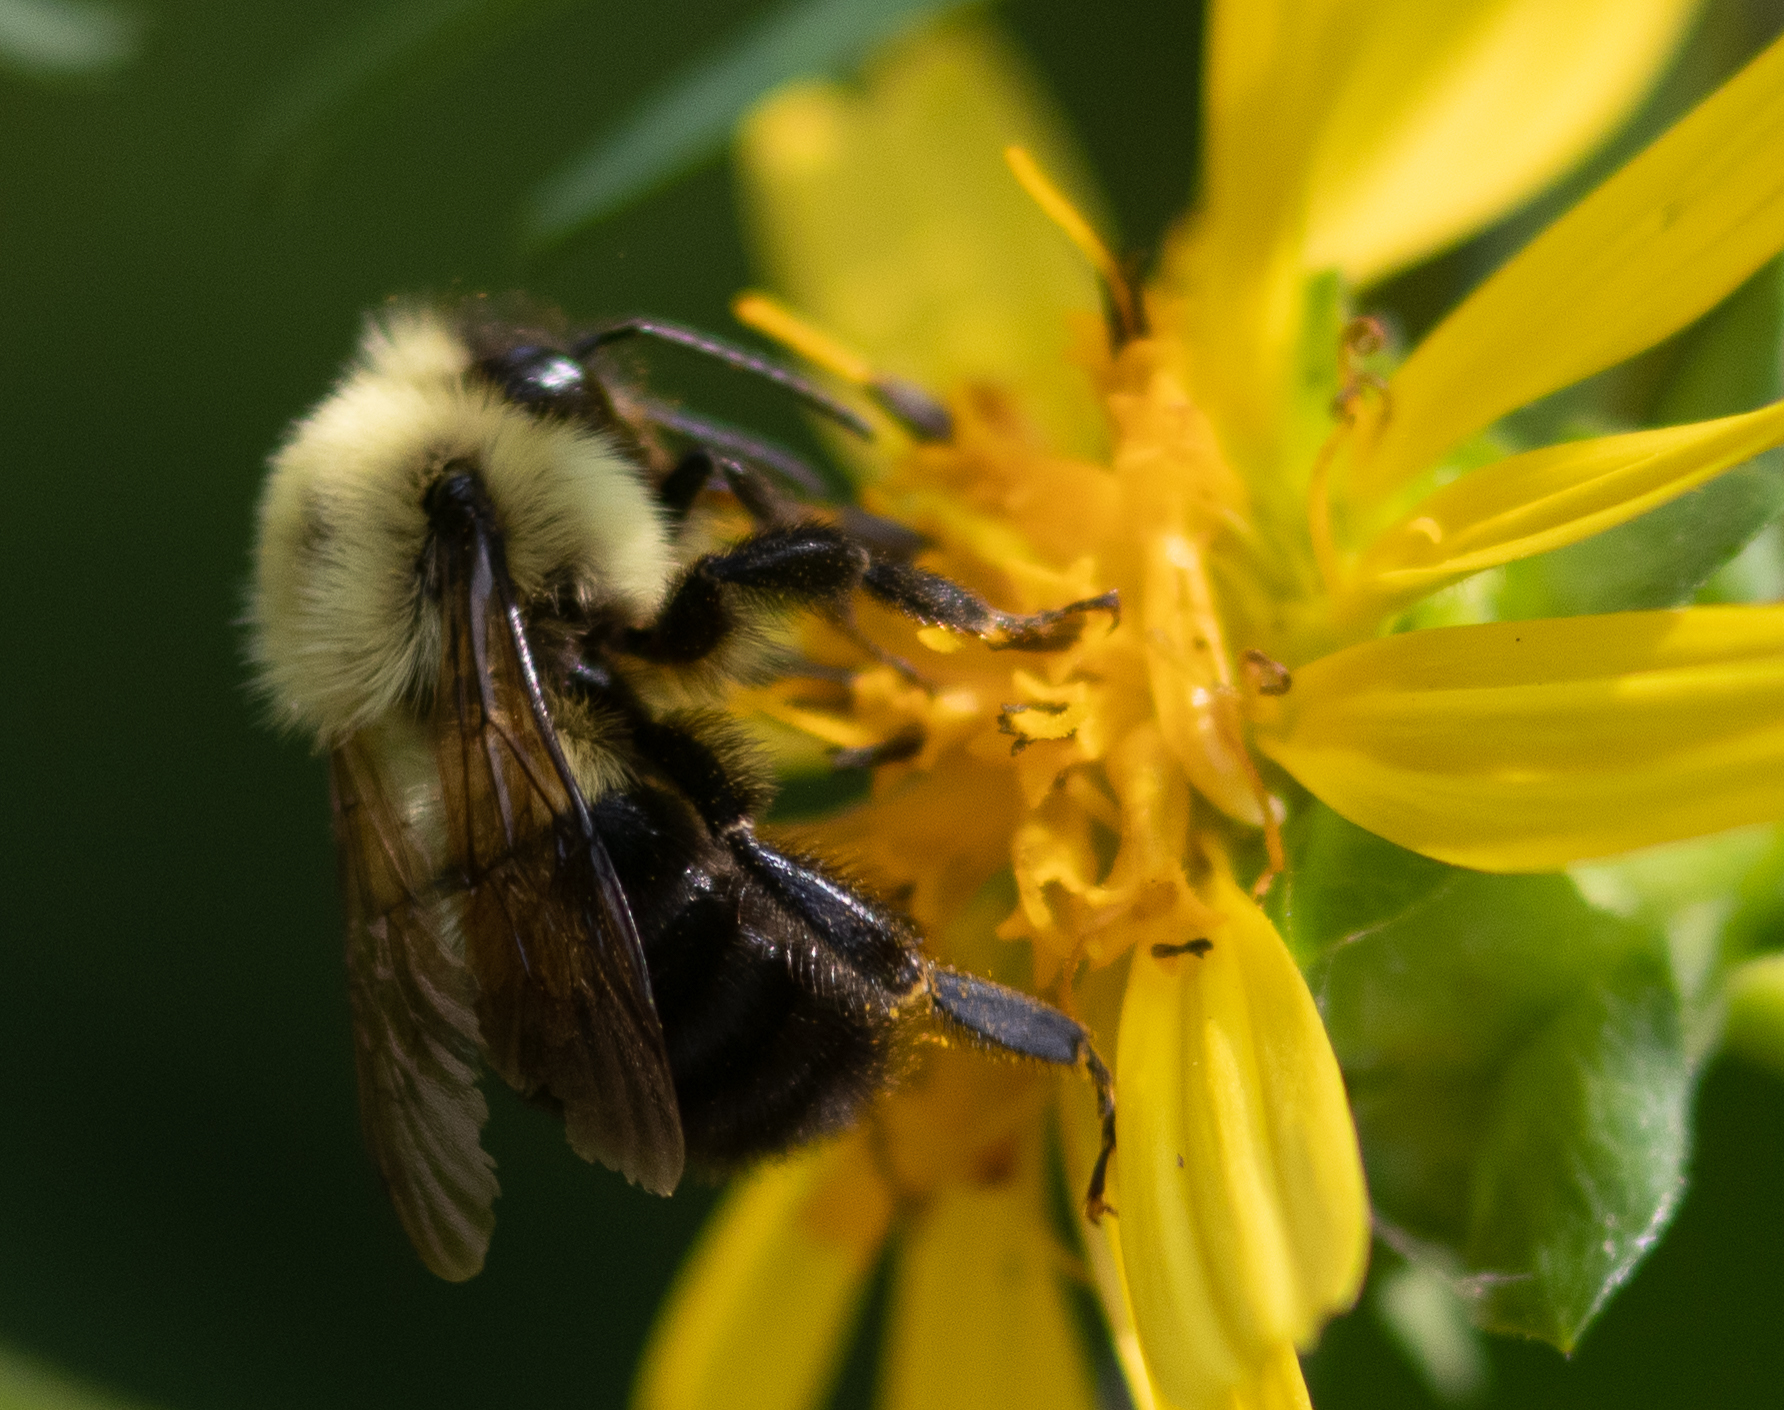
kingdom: Animalia
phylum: Arthropoda
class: Insecta
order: Hymenoptera
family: Apidae
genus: Bombus
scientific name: Bombus bimaculatus
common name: Two-spotted bumble bee
